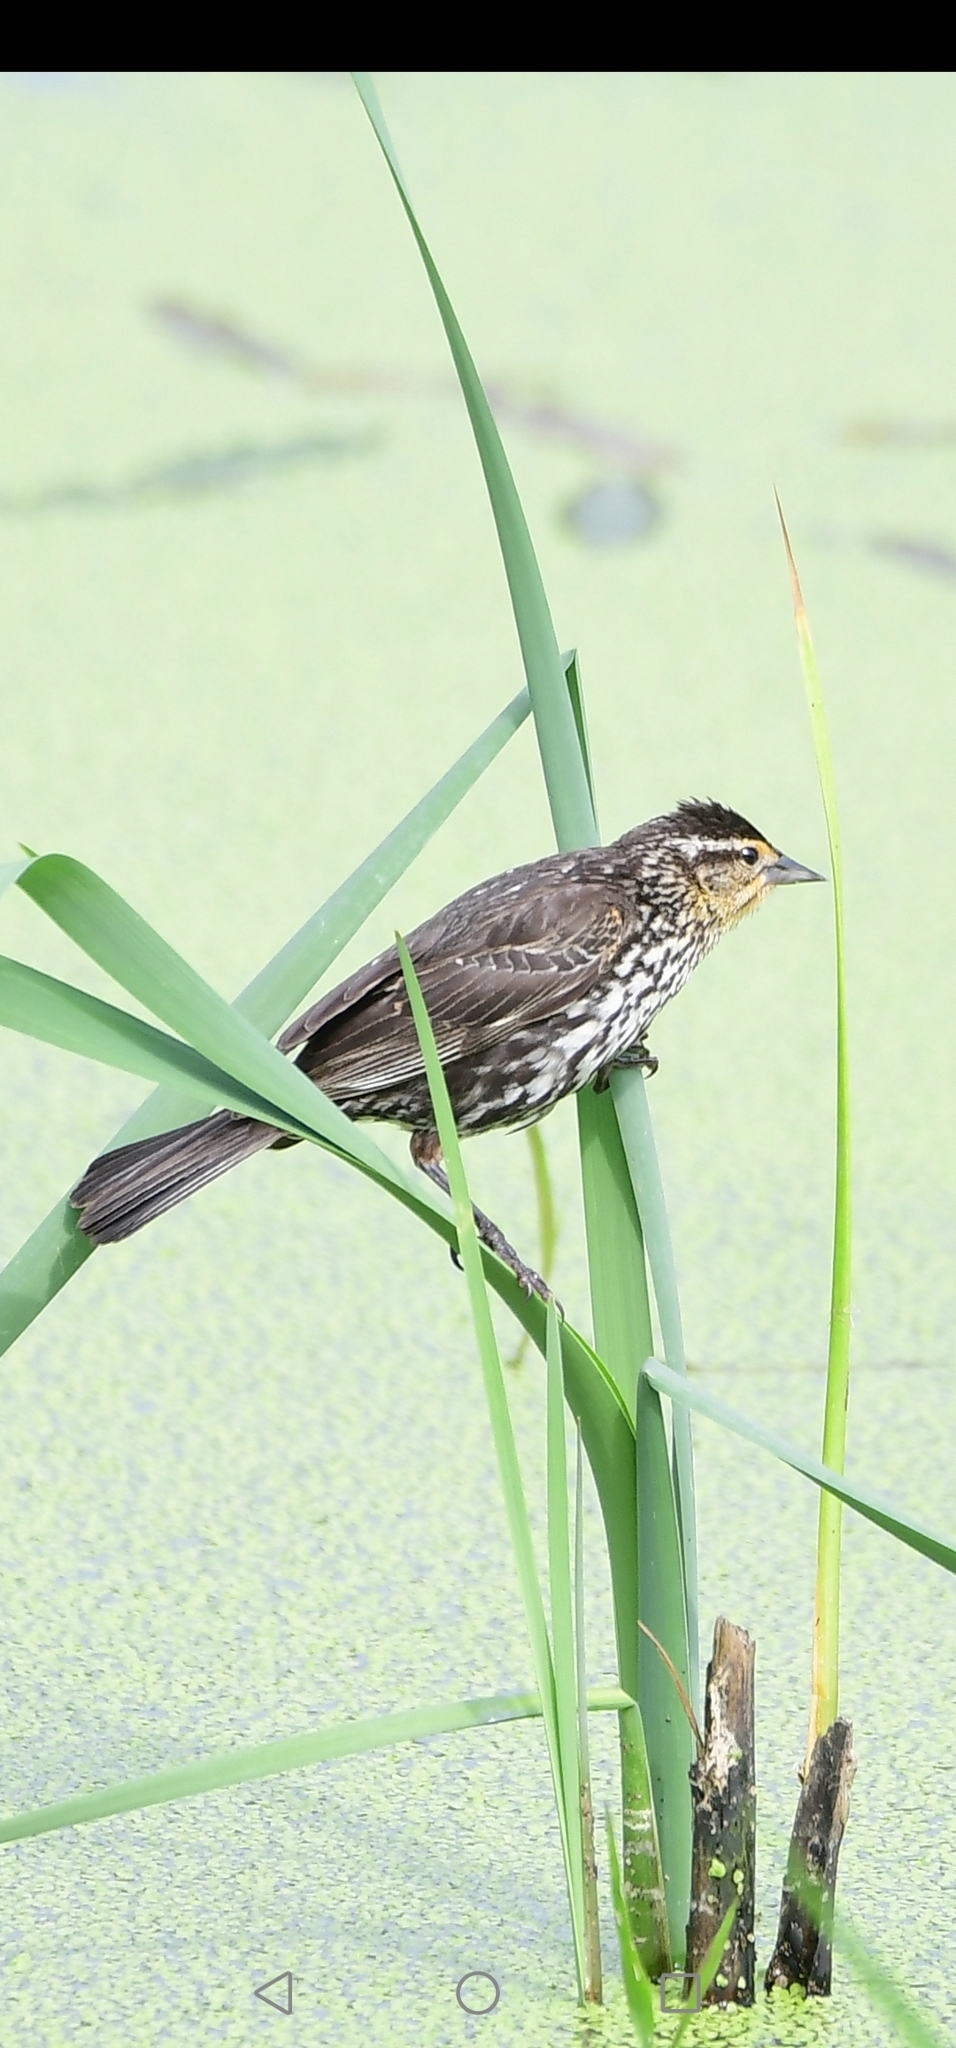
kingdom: Animalia
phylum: Chordata
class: Aves
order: Passeriformes
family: Icteridae
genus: Agelaius
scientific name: Agelaius phoeniceus
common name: Red-winged blackbird
